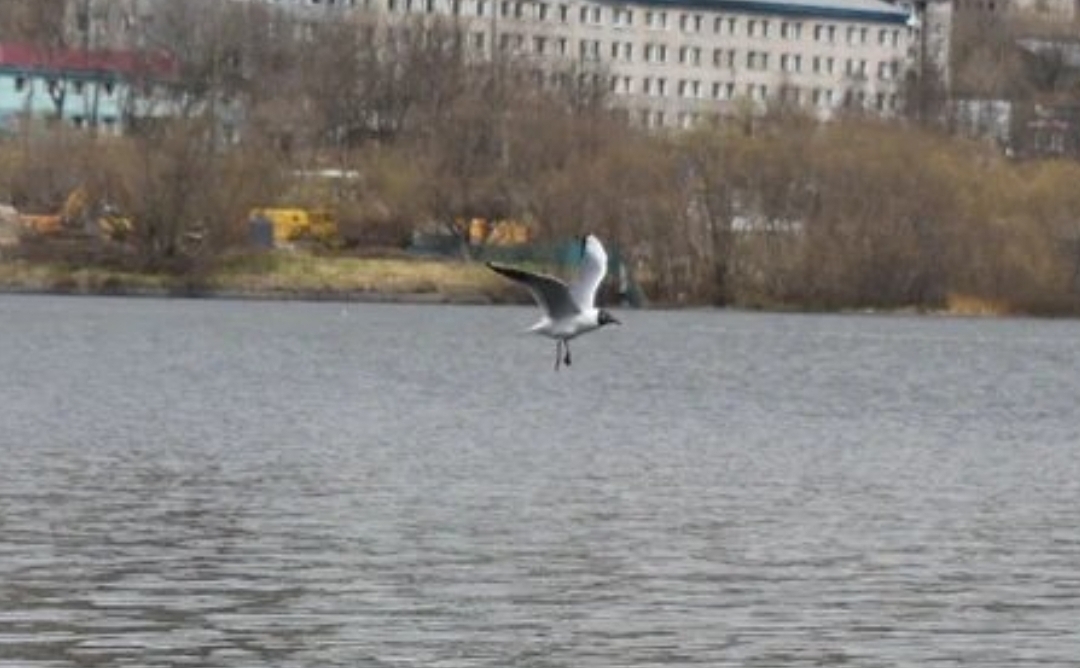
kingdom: Animalia
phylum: Chordata
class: Aves
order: Charadriiformes
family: Laridae
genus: Chroicocephalus
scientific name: Chroicocephalus ridibundus
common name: Black-headed gull
